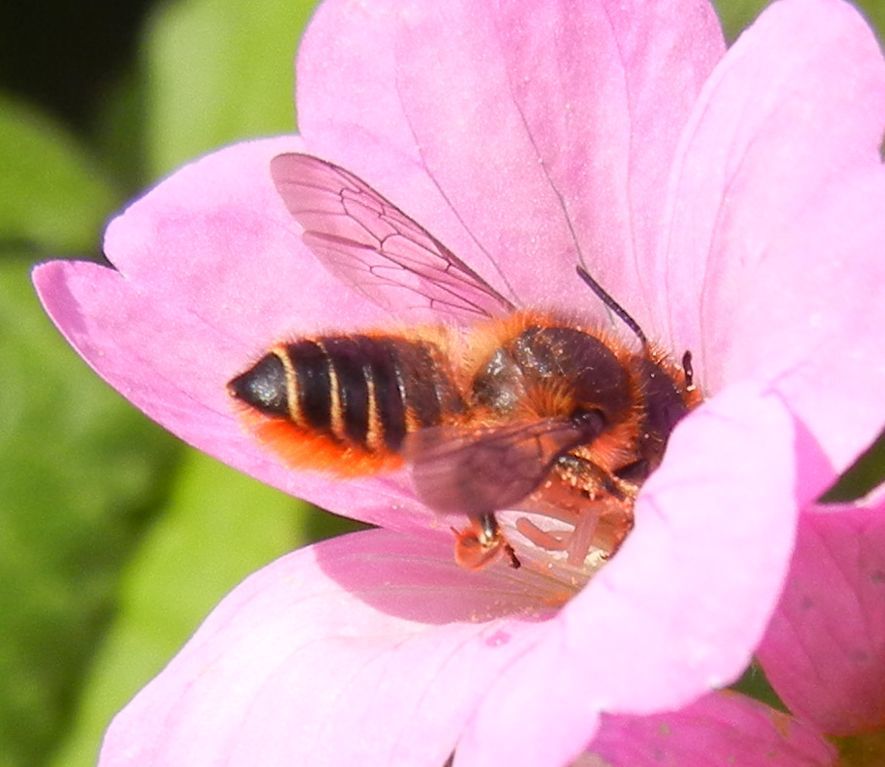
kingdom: Animalia
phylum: Arthropoda
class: Insecta
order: Hymenoptera
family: Megachilidae
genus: Megachile
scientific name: Megachile centuncularis
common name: Patchwork leafcutter bee
